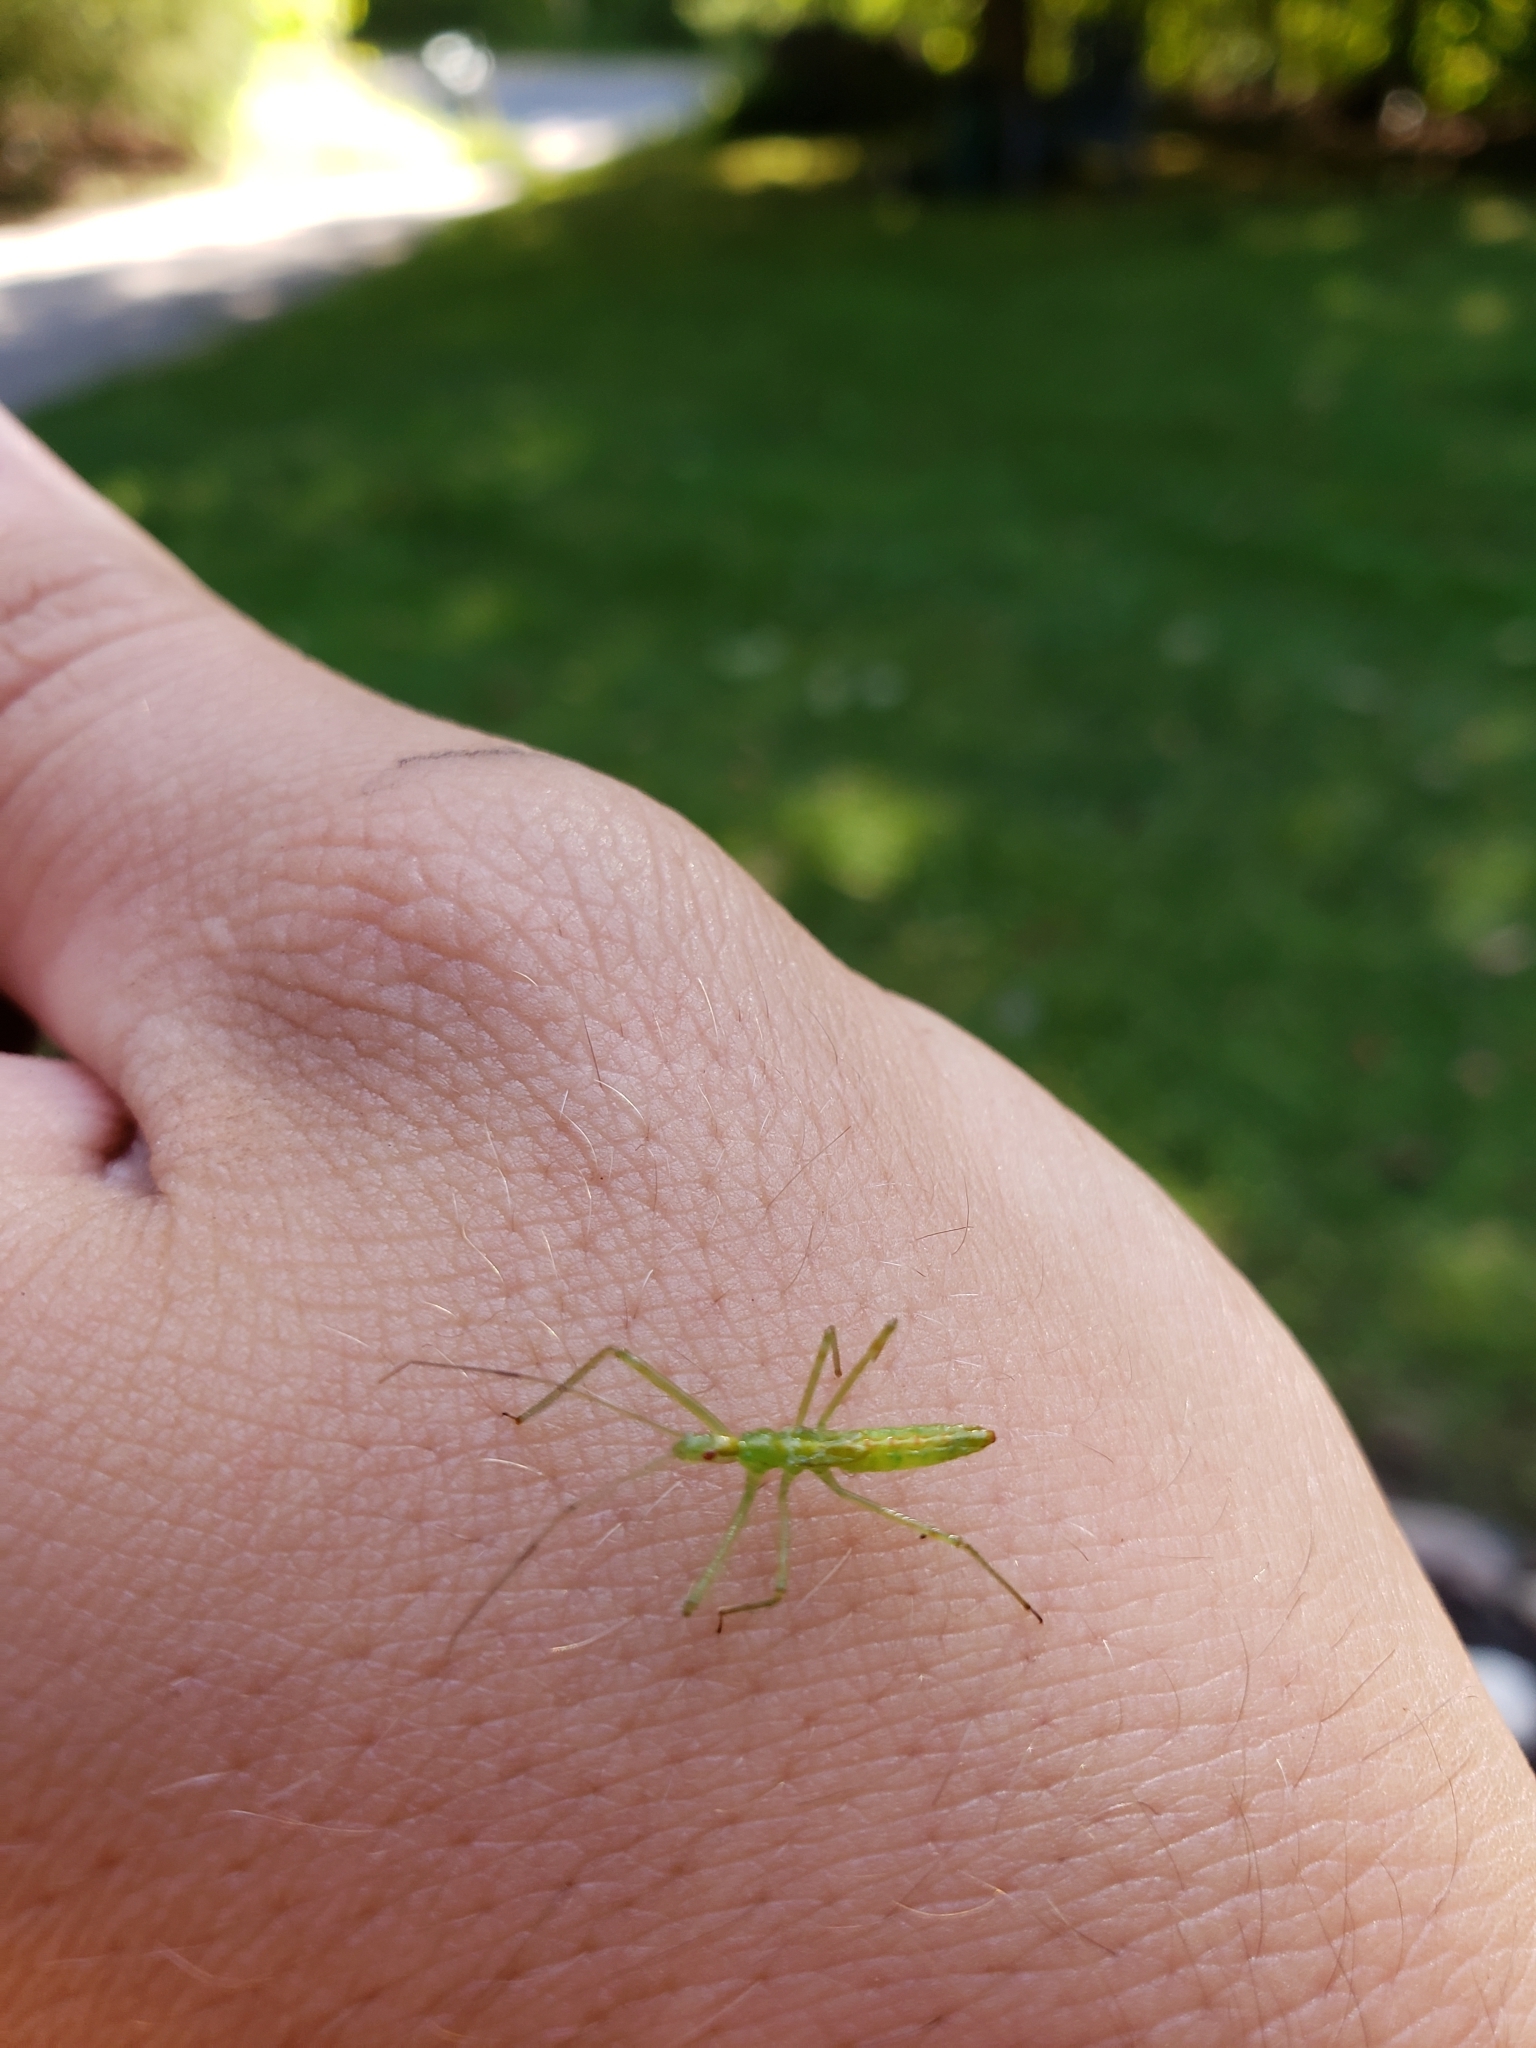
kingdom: Animalia
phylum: Arthropoda
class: Insecta
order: Hemiptera
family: Reduviidae
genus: Zelus
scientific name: Zelus luridus
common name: Pale green assassin bug
